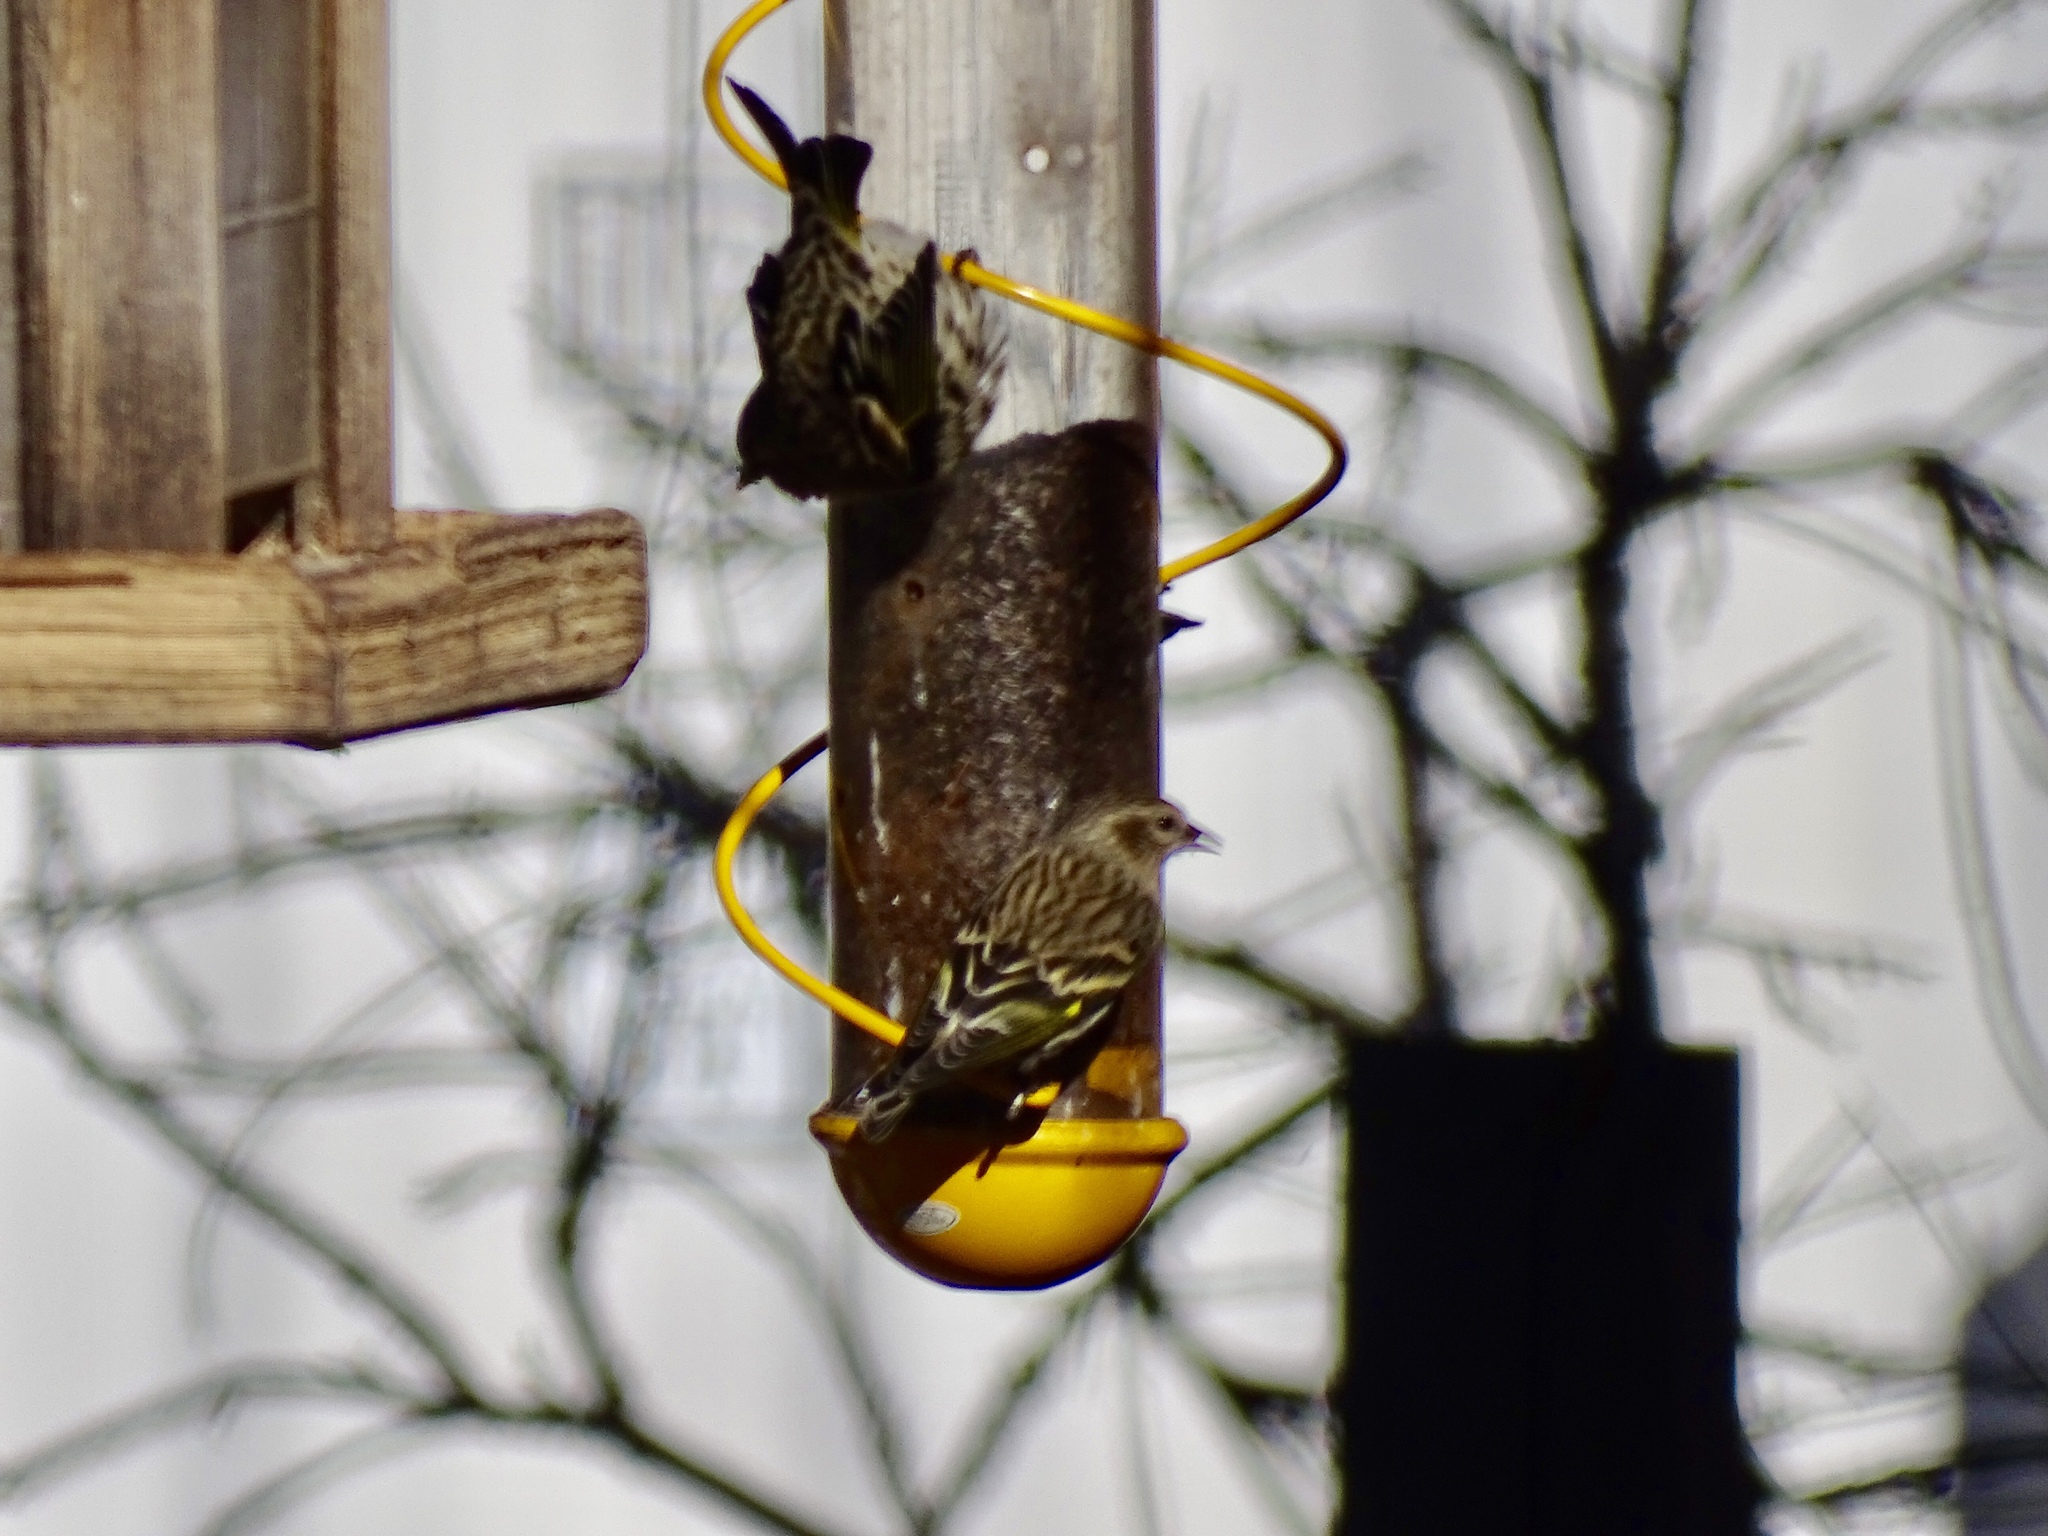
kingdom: Animalia
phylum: Chordata
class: Aves
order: Passeriformes
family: Fringillidae
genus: Spinus
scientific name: Spinus pinus
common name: Pine siskin
